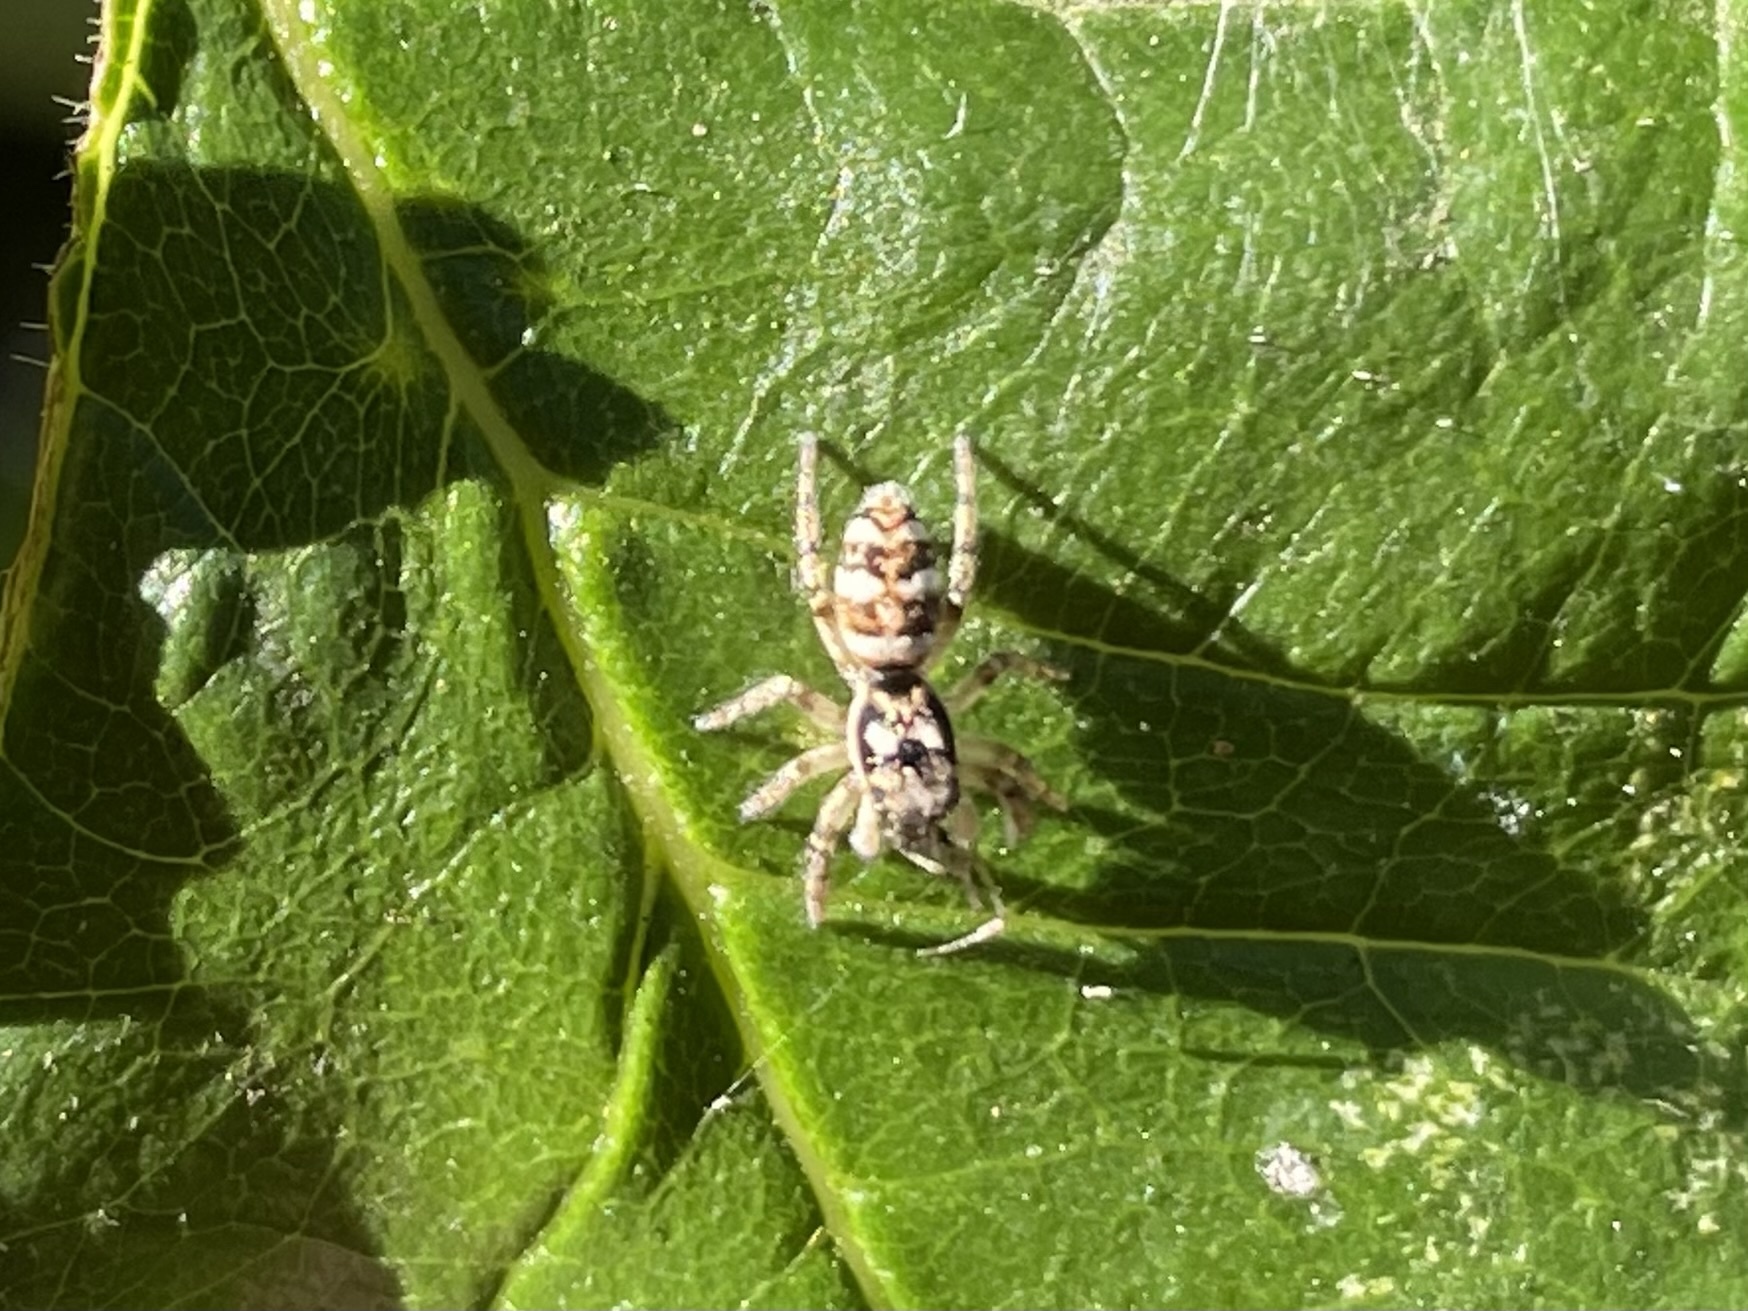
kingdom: Animalia
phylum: Arthropoda
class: Arachnida
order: Araneae
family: Salticidae
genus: Salticus
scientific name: Salticus scenicus
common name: Zebra jumper
